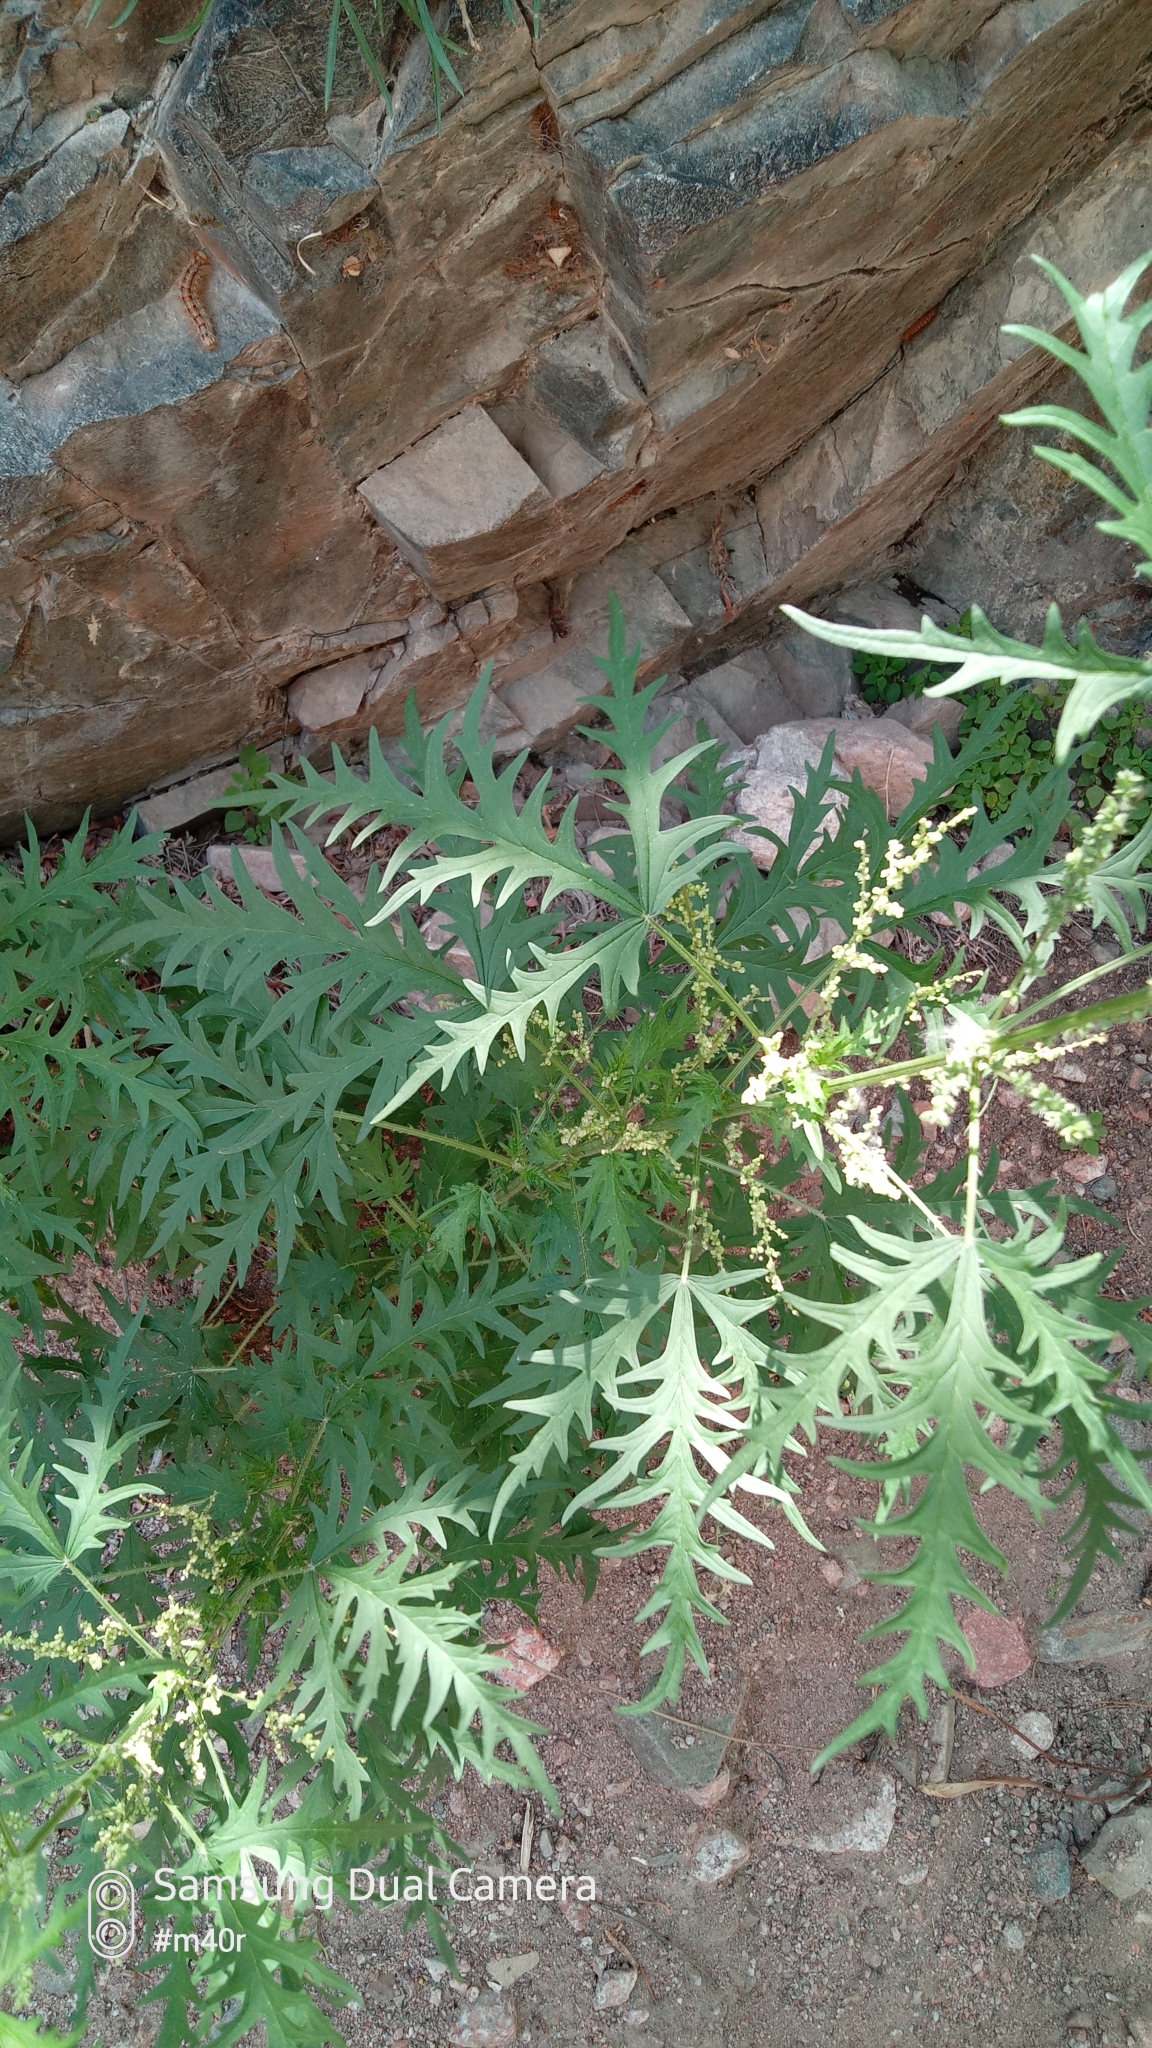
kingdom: Plantae
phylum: Tracheophyta
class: Magnoliopsida
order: Rosales
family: Urticaceae
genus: Urtica
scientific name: Urtica cannabina
